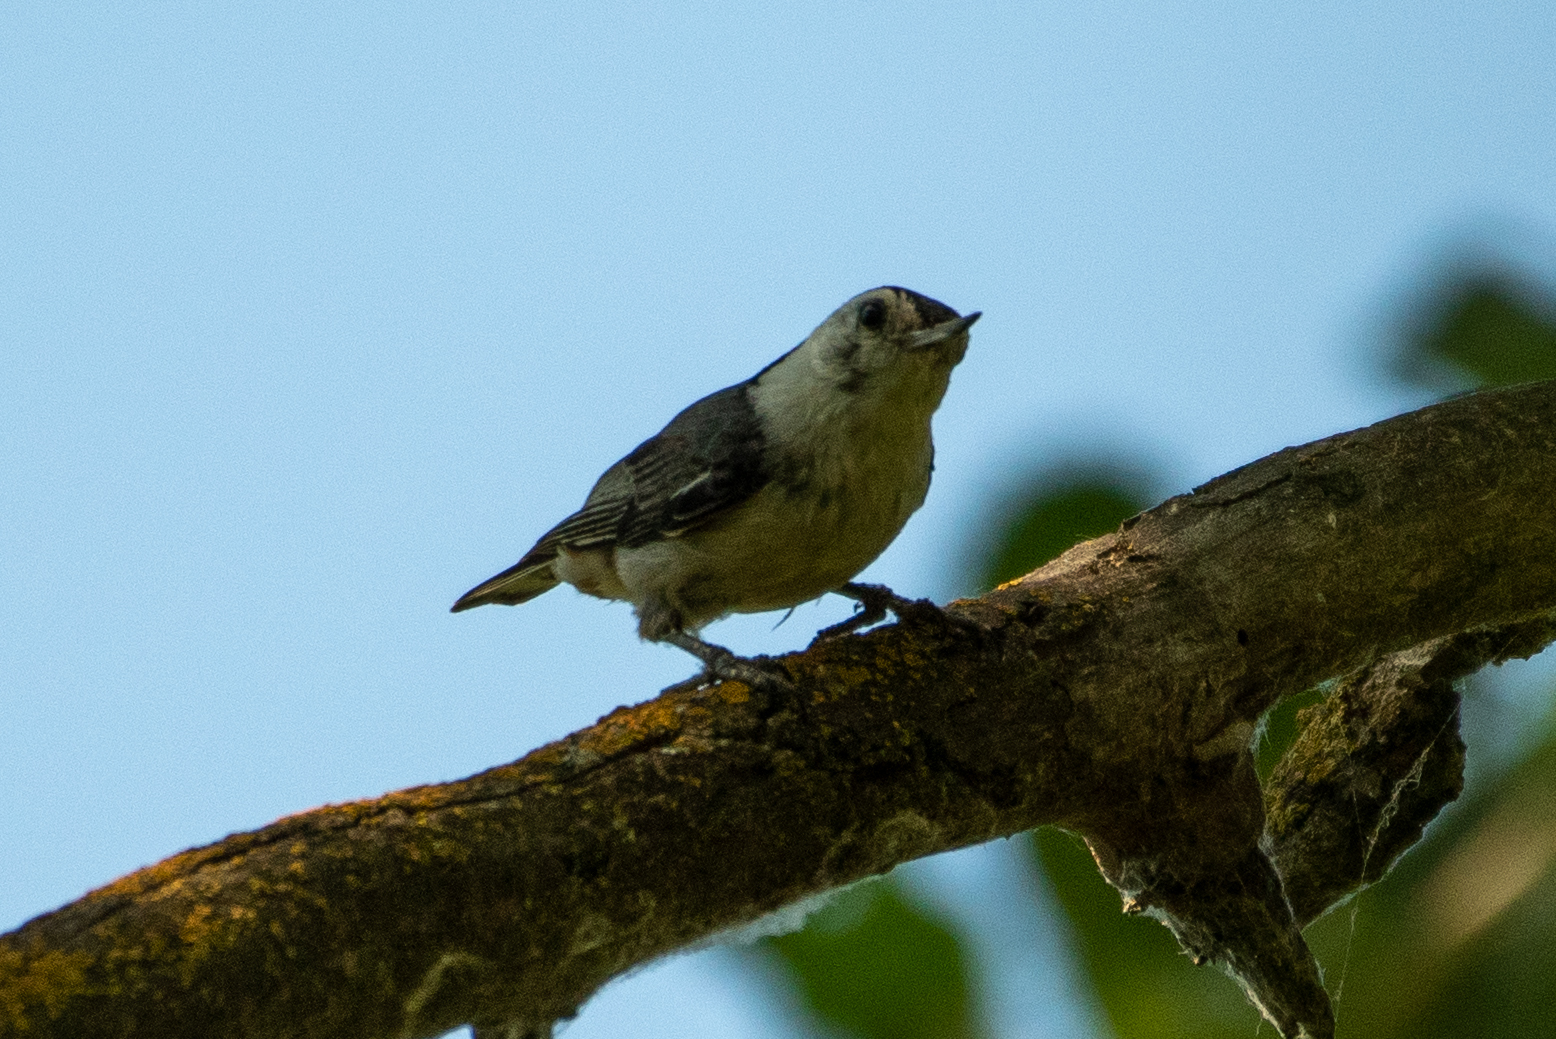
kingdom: Animalia
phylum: Chordata
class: Aves
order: Passeriformes
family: Sittidae
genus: Sitta
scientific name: Sitta carolinensis
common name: White-breasted nuthatch
